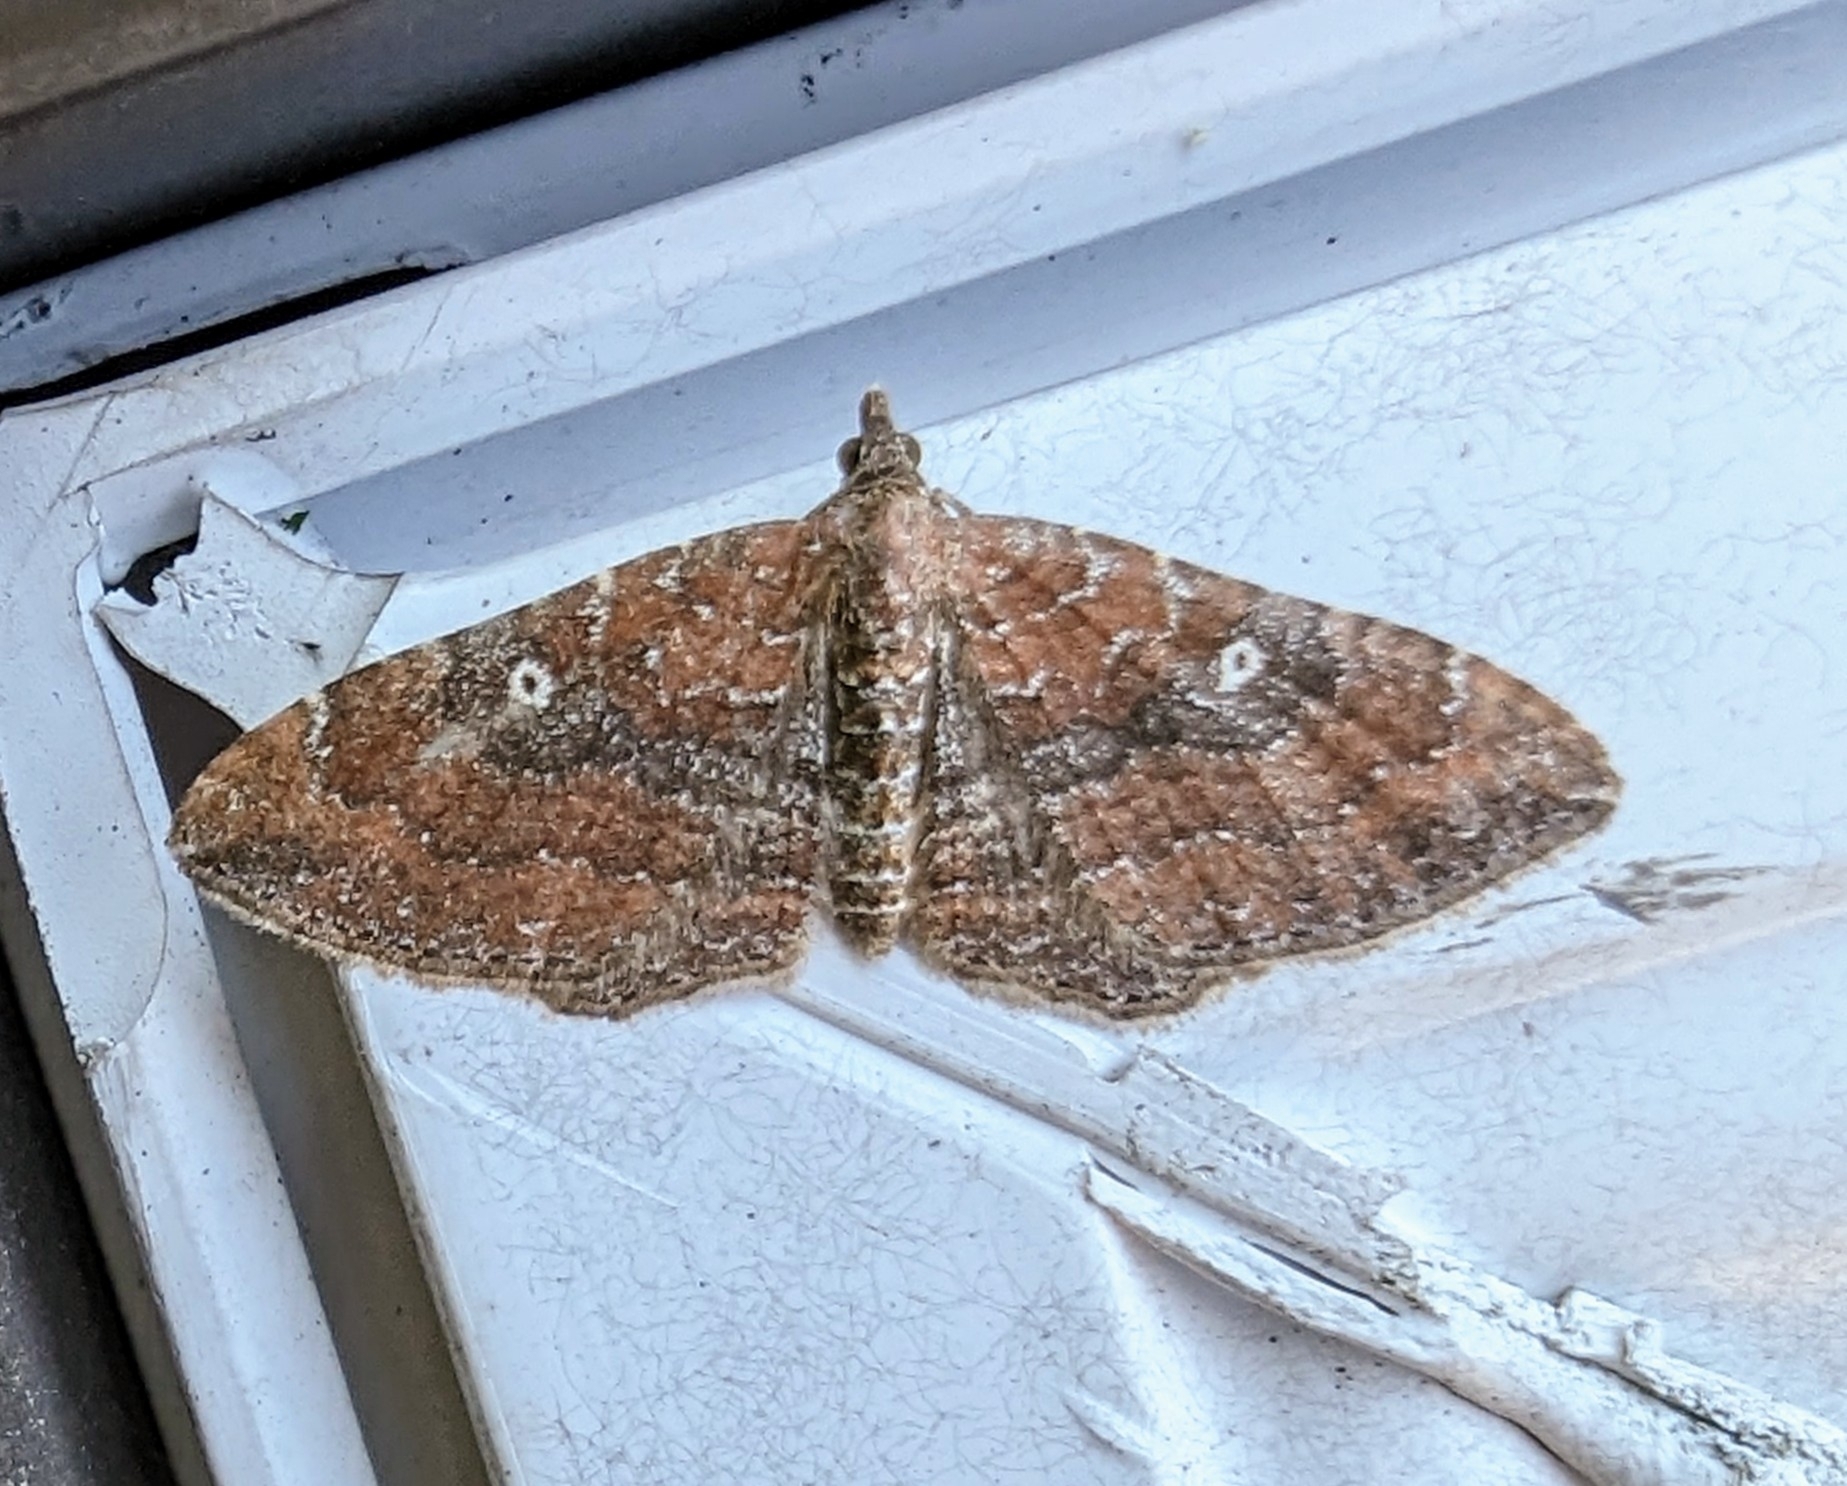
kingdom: Animalia
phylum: Arthropoda
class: Insecta
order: Lepidoptera
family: Geometridae
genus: Orthonama
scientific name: Orthonama obstipata
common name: The gem
